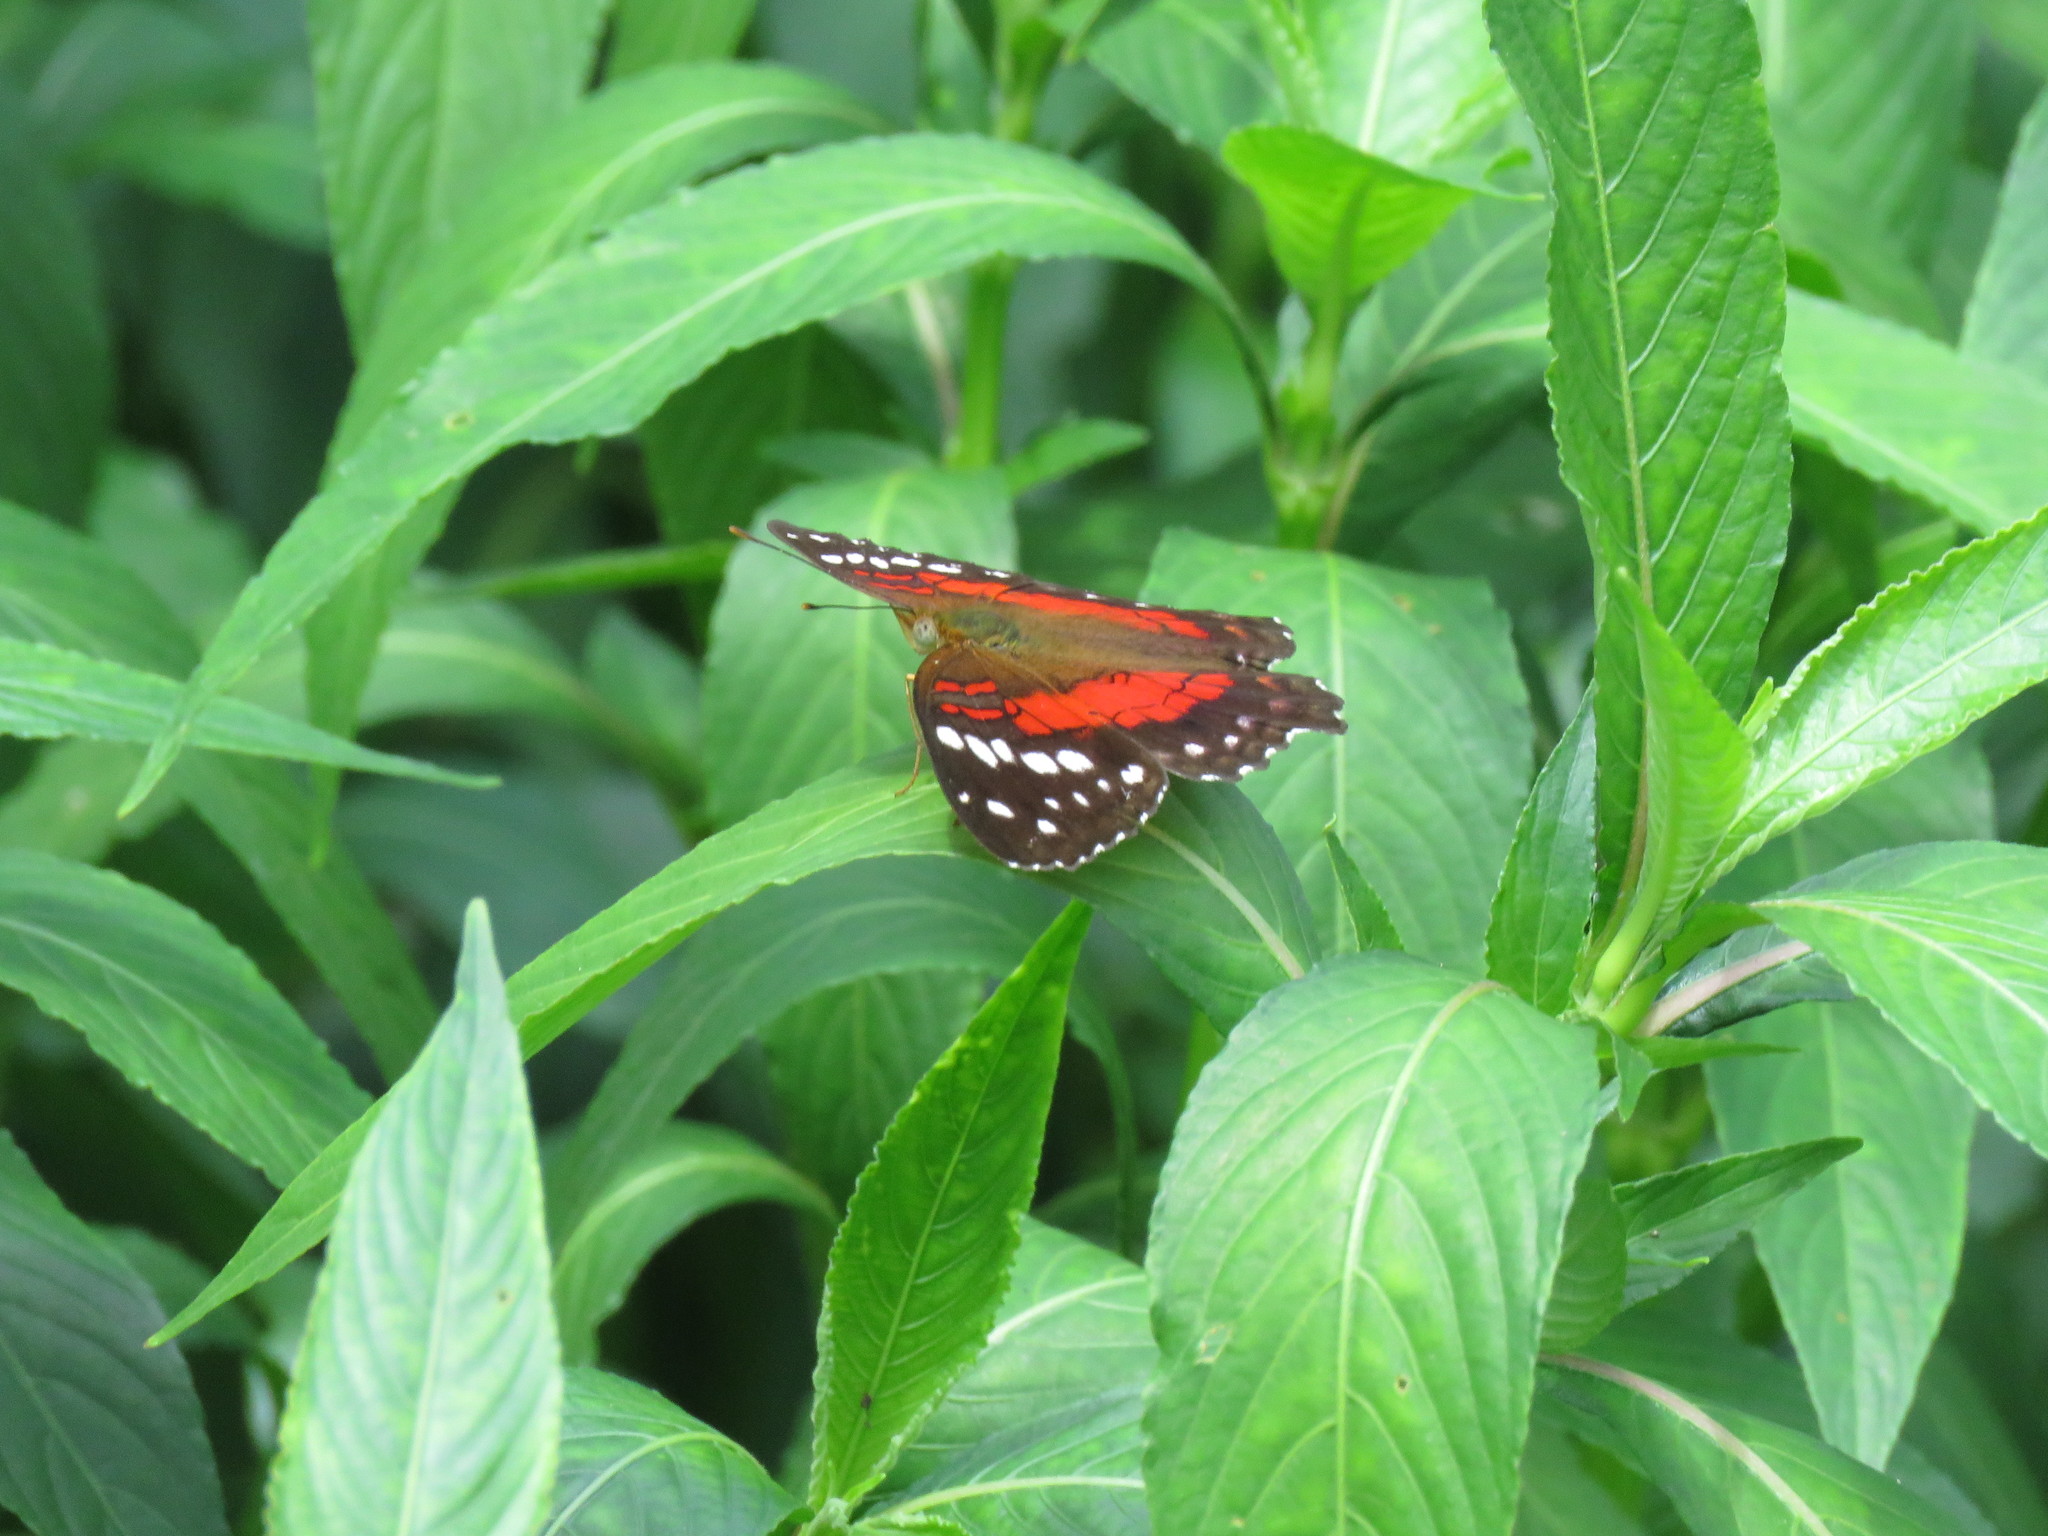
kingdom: Animalia
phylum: Arthropoda
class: Insecta
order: Lepidoptera
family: Nymphalidae
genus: Anartia
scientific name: Anartia amathea
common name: Red peacock
